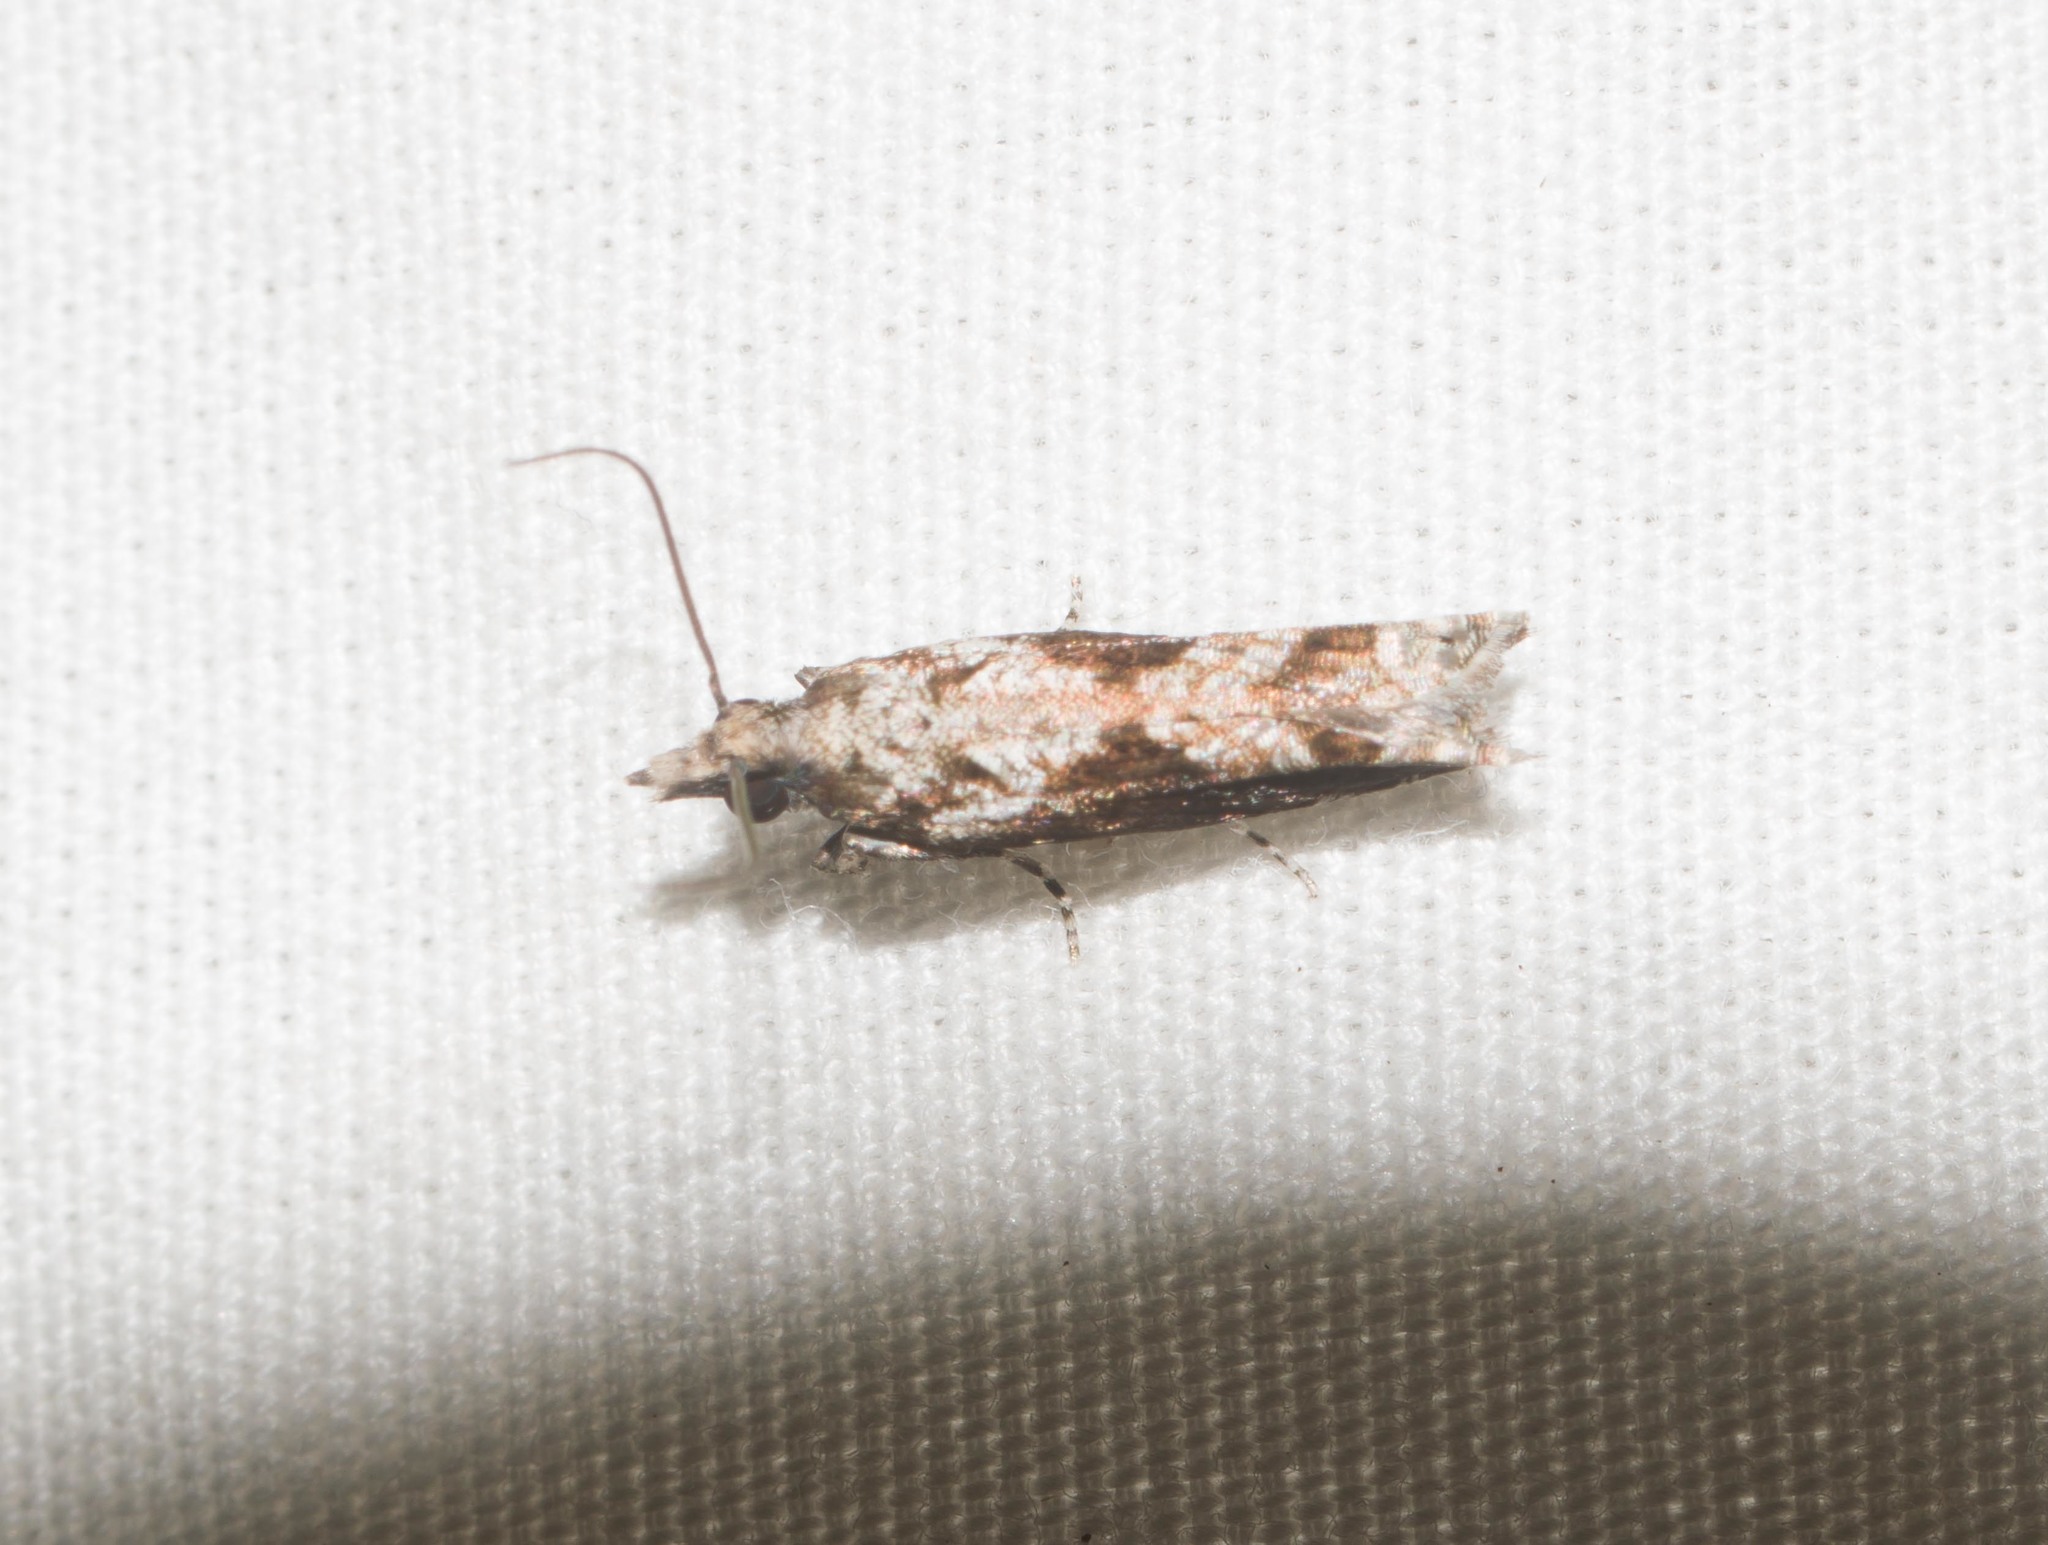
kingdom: Animalia
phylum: Arthropoda
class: Insecta
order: Lepidoptera
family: Tortricidae
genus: Eccoptocera
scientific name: Eccoptocera foetorivorans
